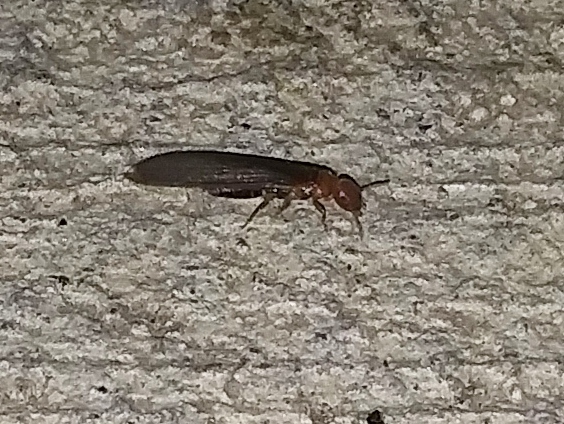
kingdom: Animalia
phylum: Arthropoda
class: Insecta
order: Blattodea
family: Kalotermitidae
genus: Incisitermes
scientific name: Incisitermes minor
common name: Termite
